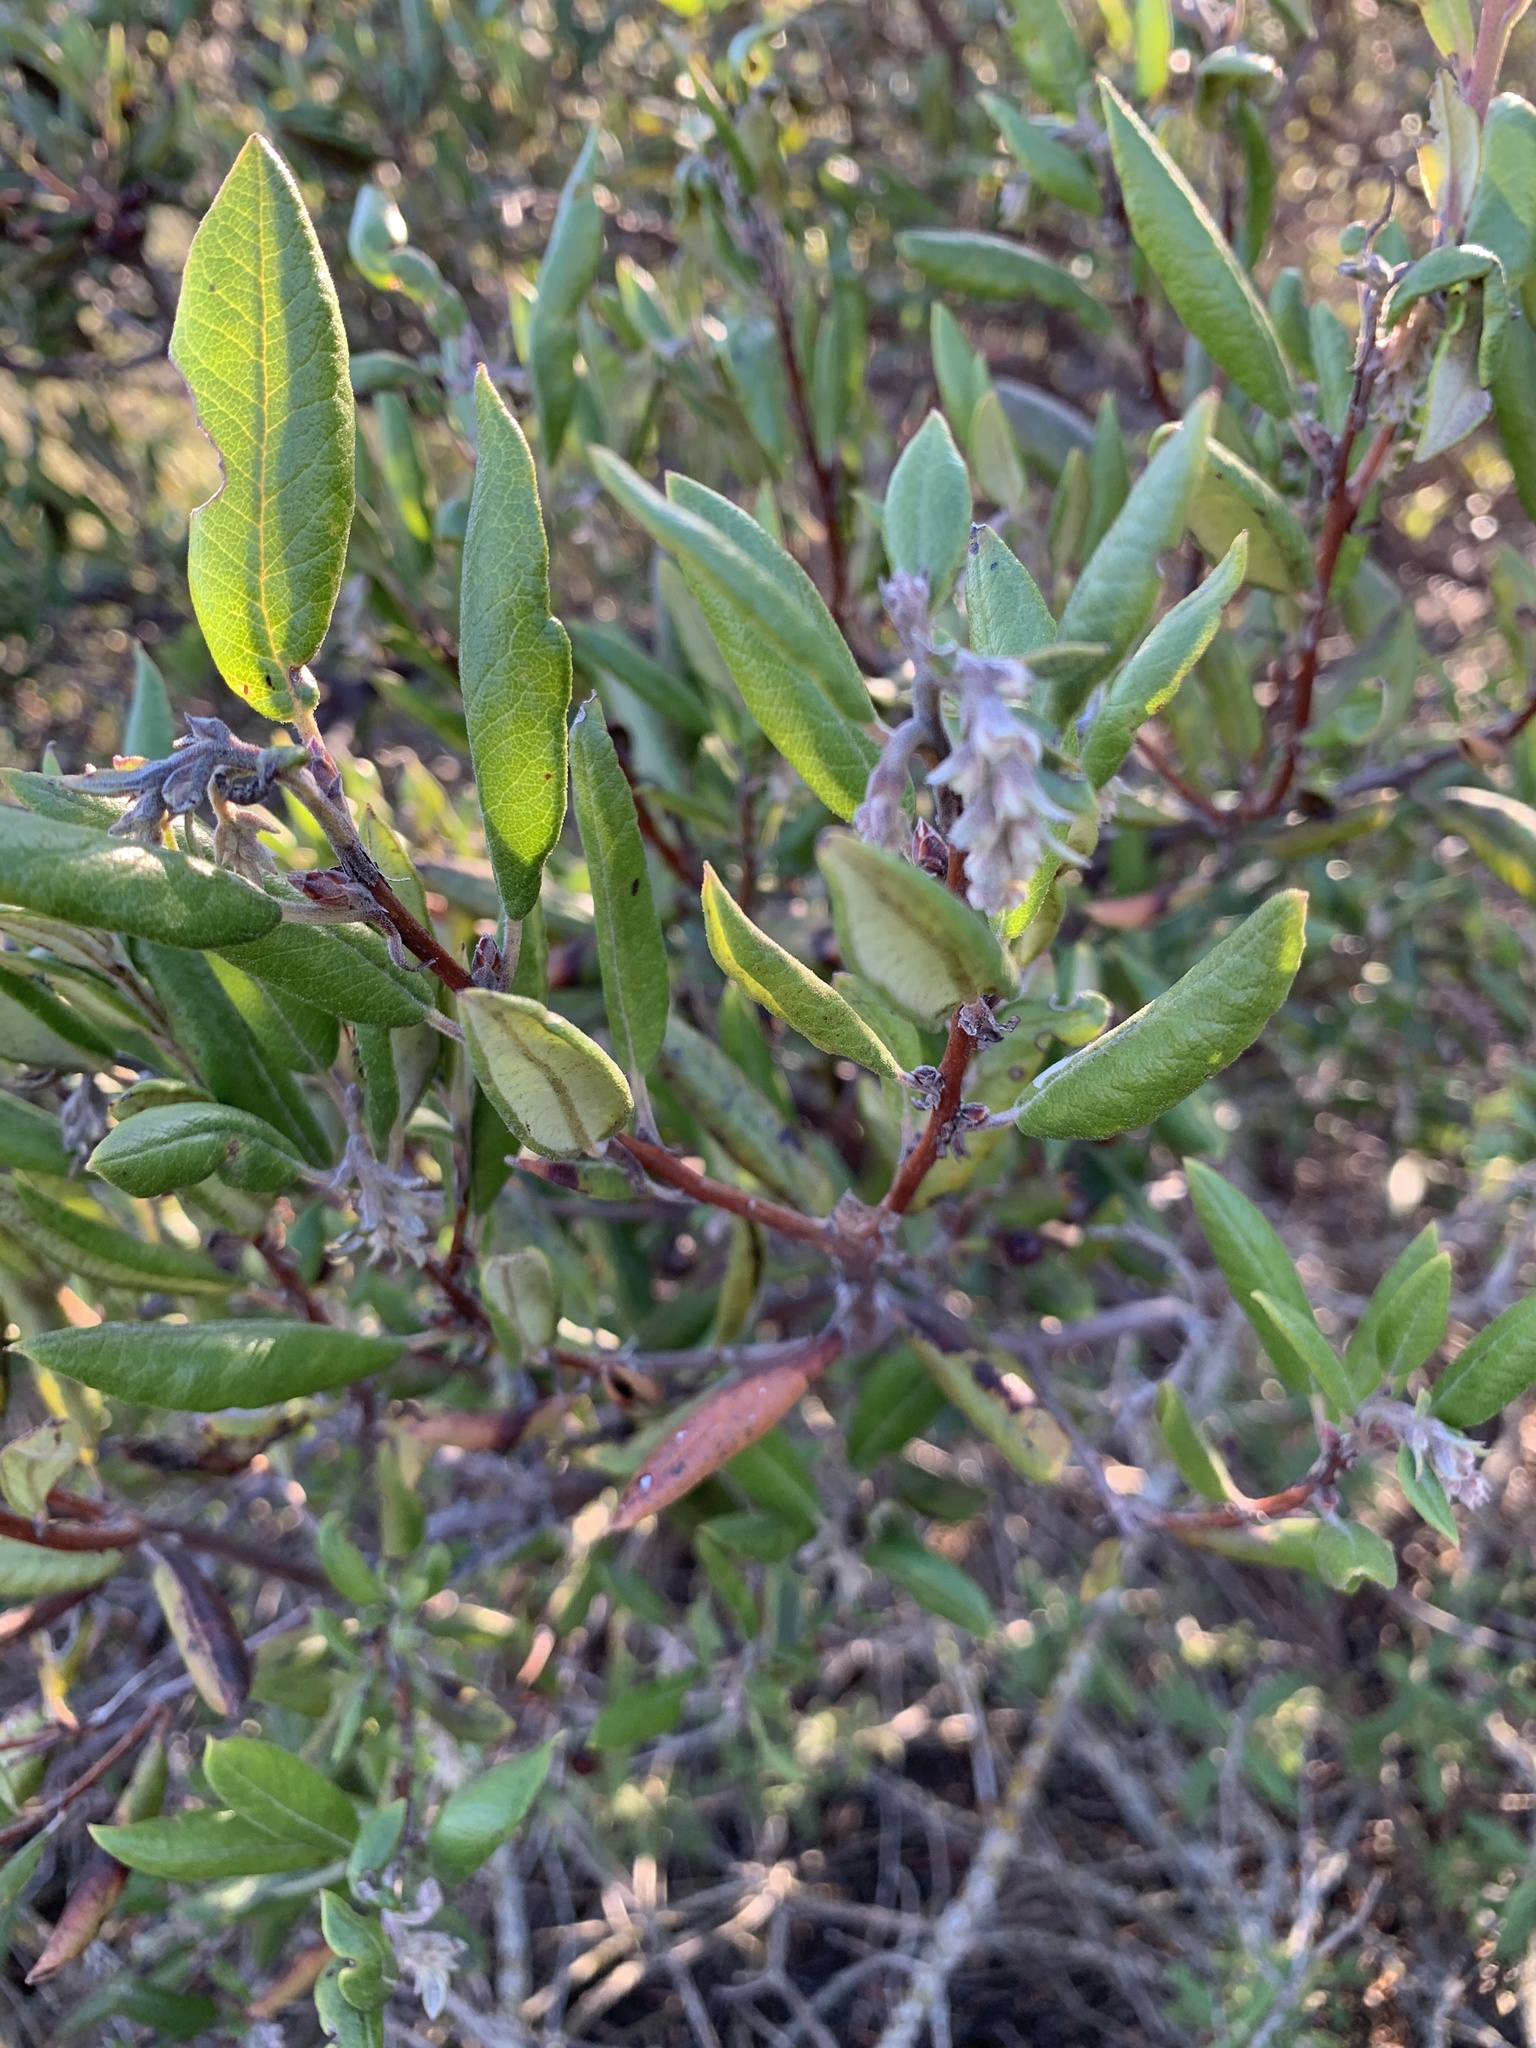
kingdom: Plantae
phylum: Tracheophyta
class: Magnoliopsida
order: Ericales
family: Ericaceae
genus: Arctostaphylos
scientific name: Arctostaphylos bicolor
